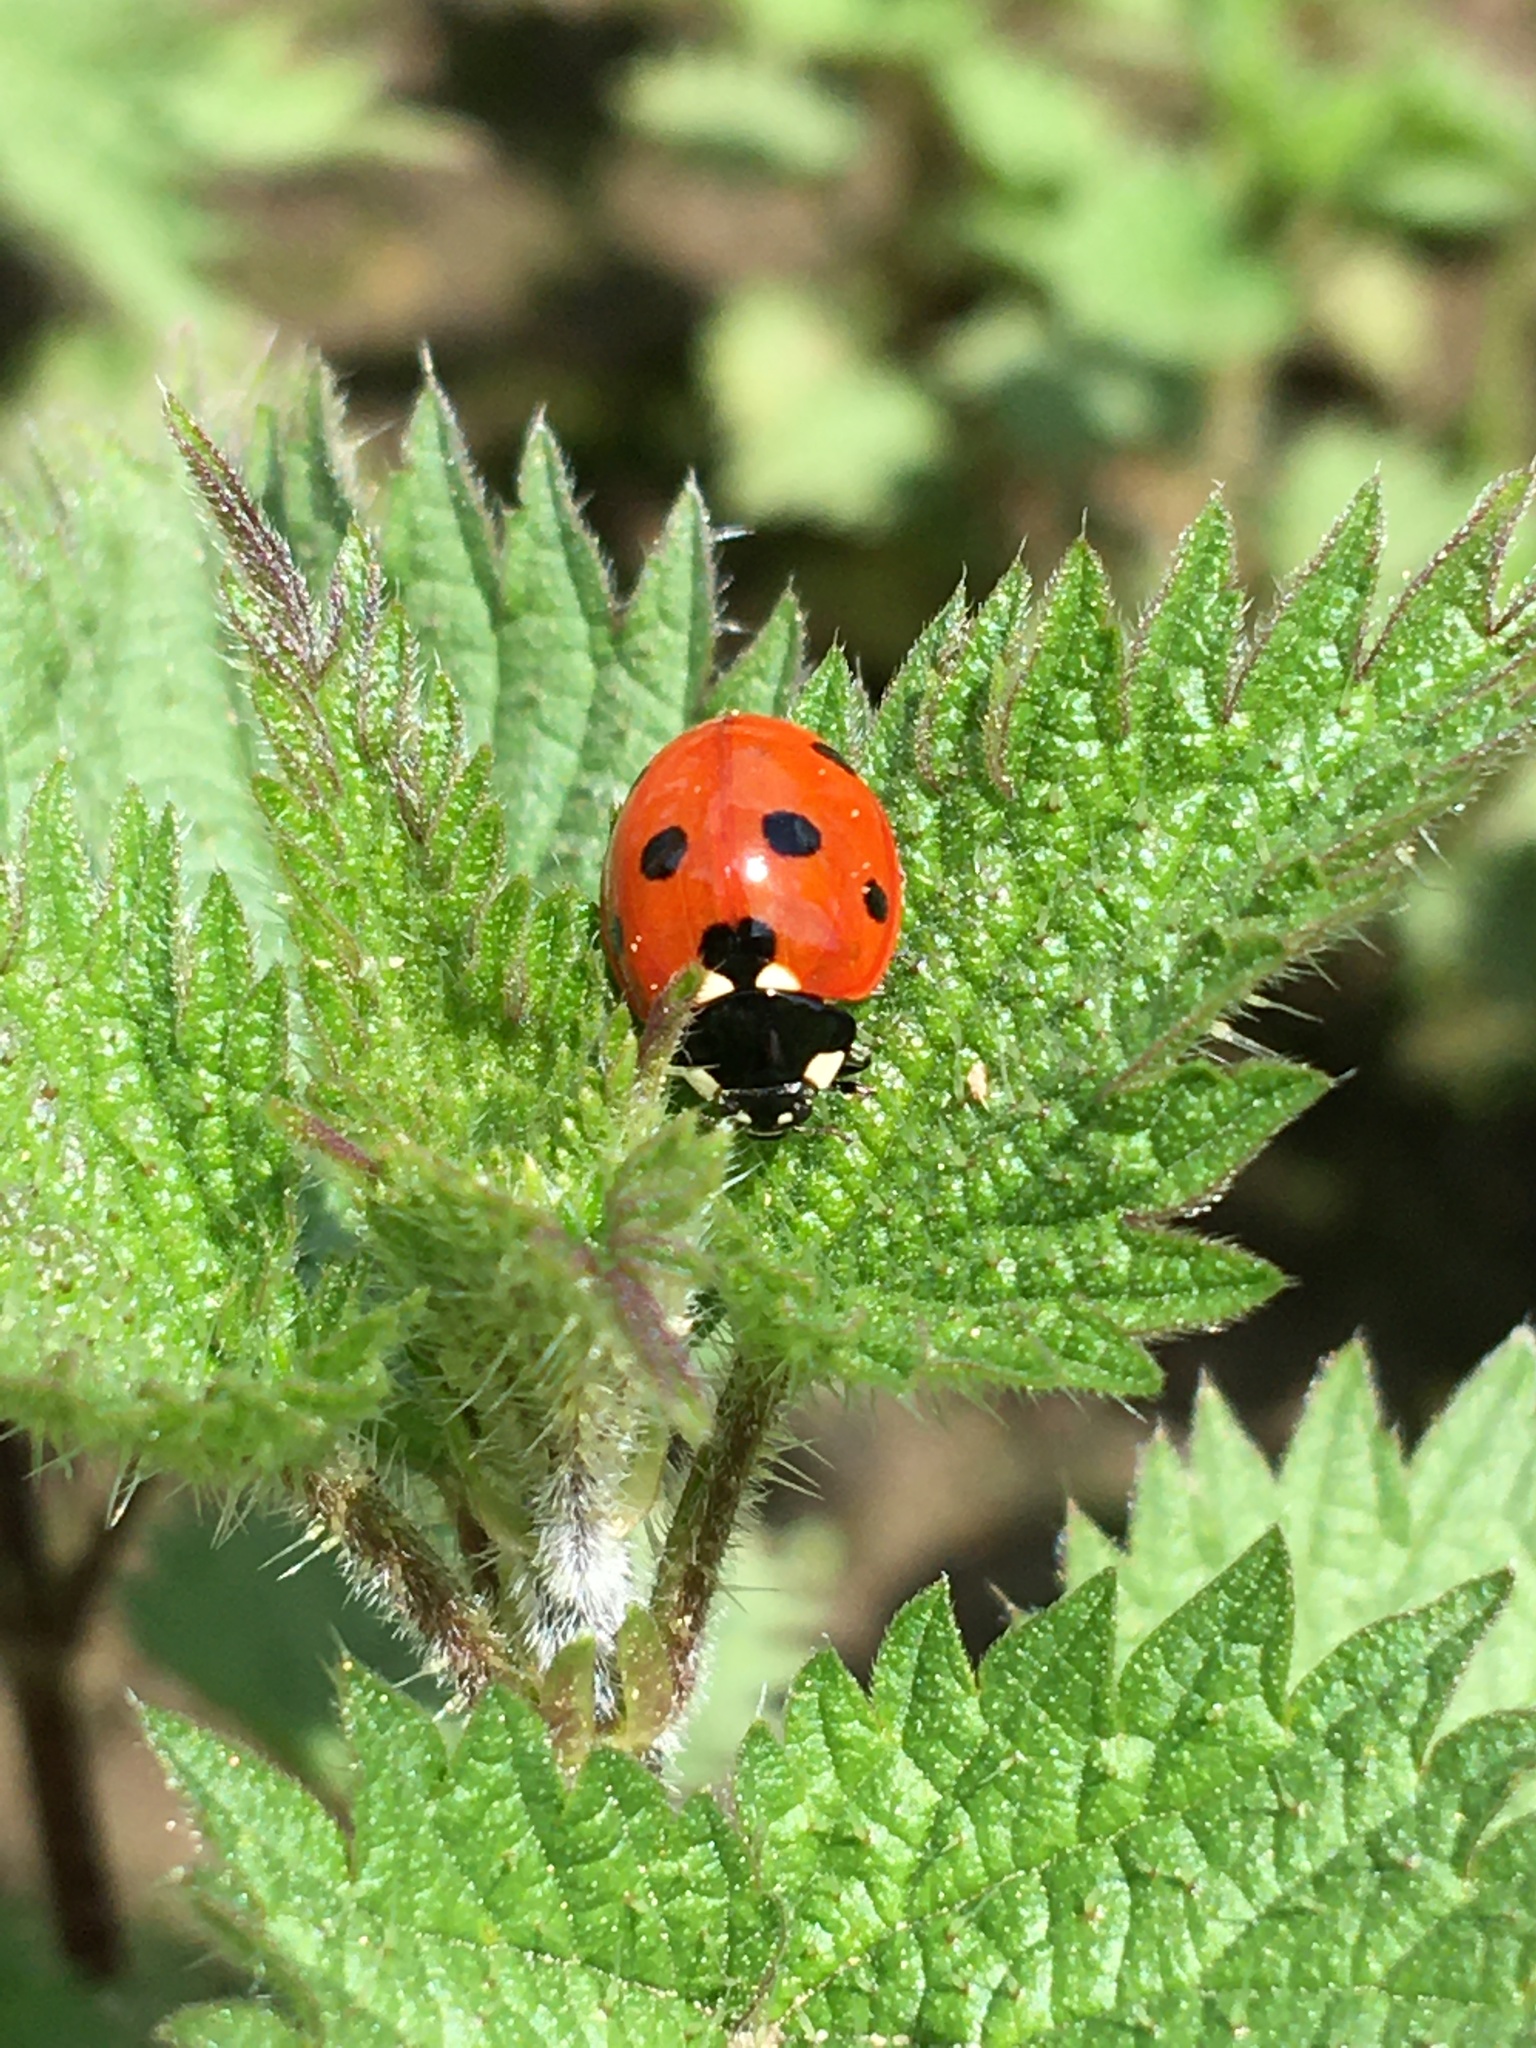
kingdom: Animalia
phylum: Arthropoda
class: Insecta
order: Coleoptera
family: Coccinellidae
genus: Coccinella
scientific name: Coccinella septempunctata
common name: Sevenspotted lady beetle
